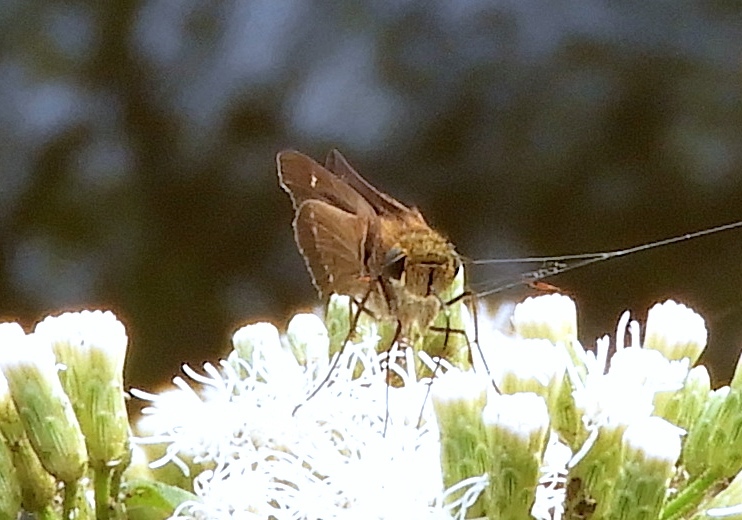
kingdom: Animalia
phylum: Arthropoda
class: Insecta
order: Lepidoptera
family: Hesperiidae
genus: Turesis
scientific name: Turesis lucas
